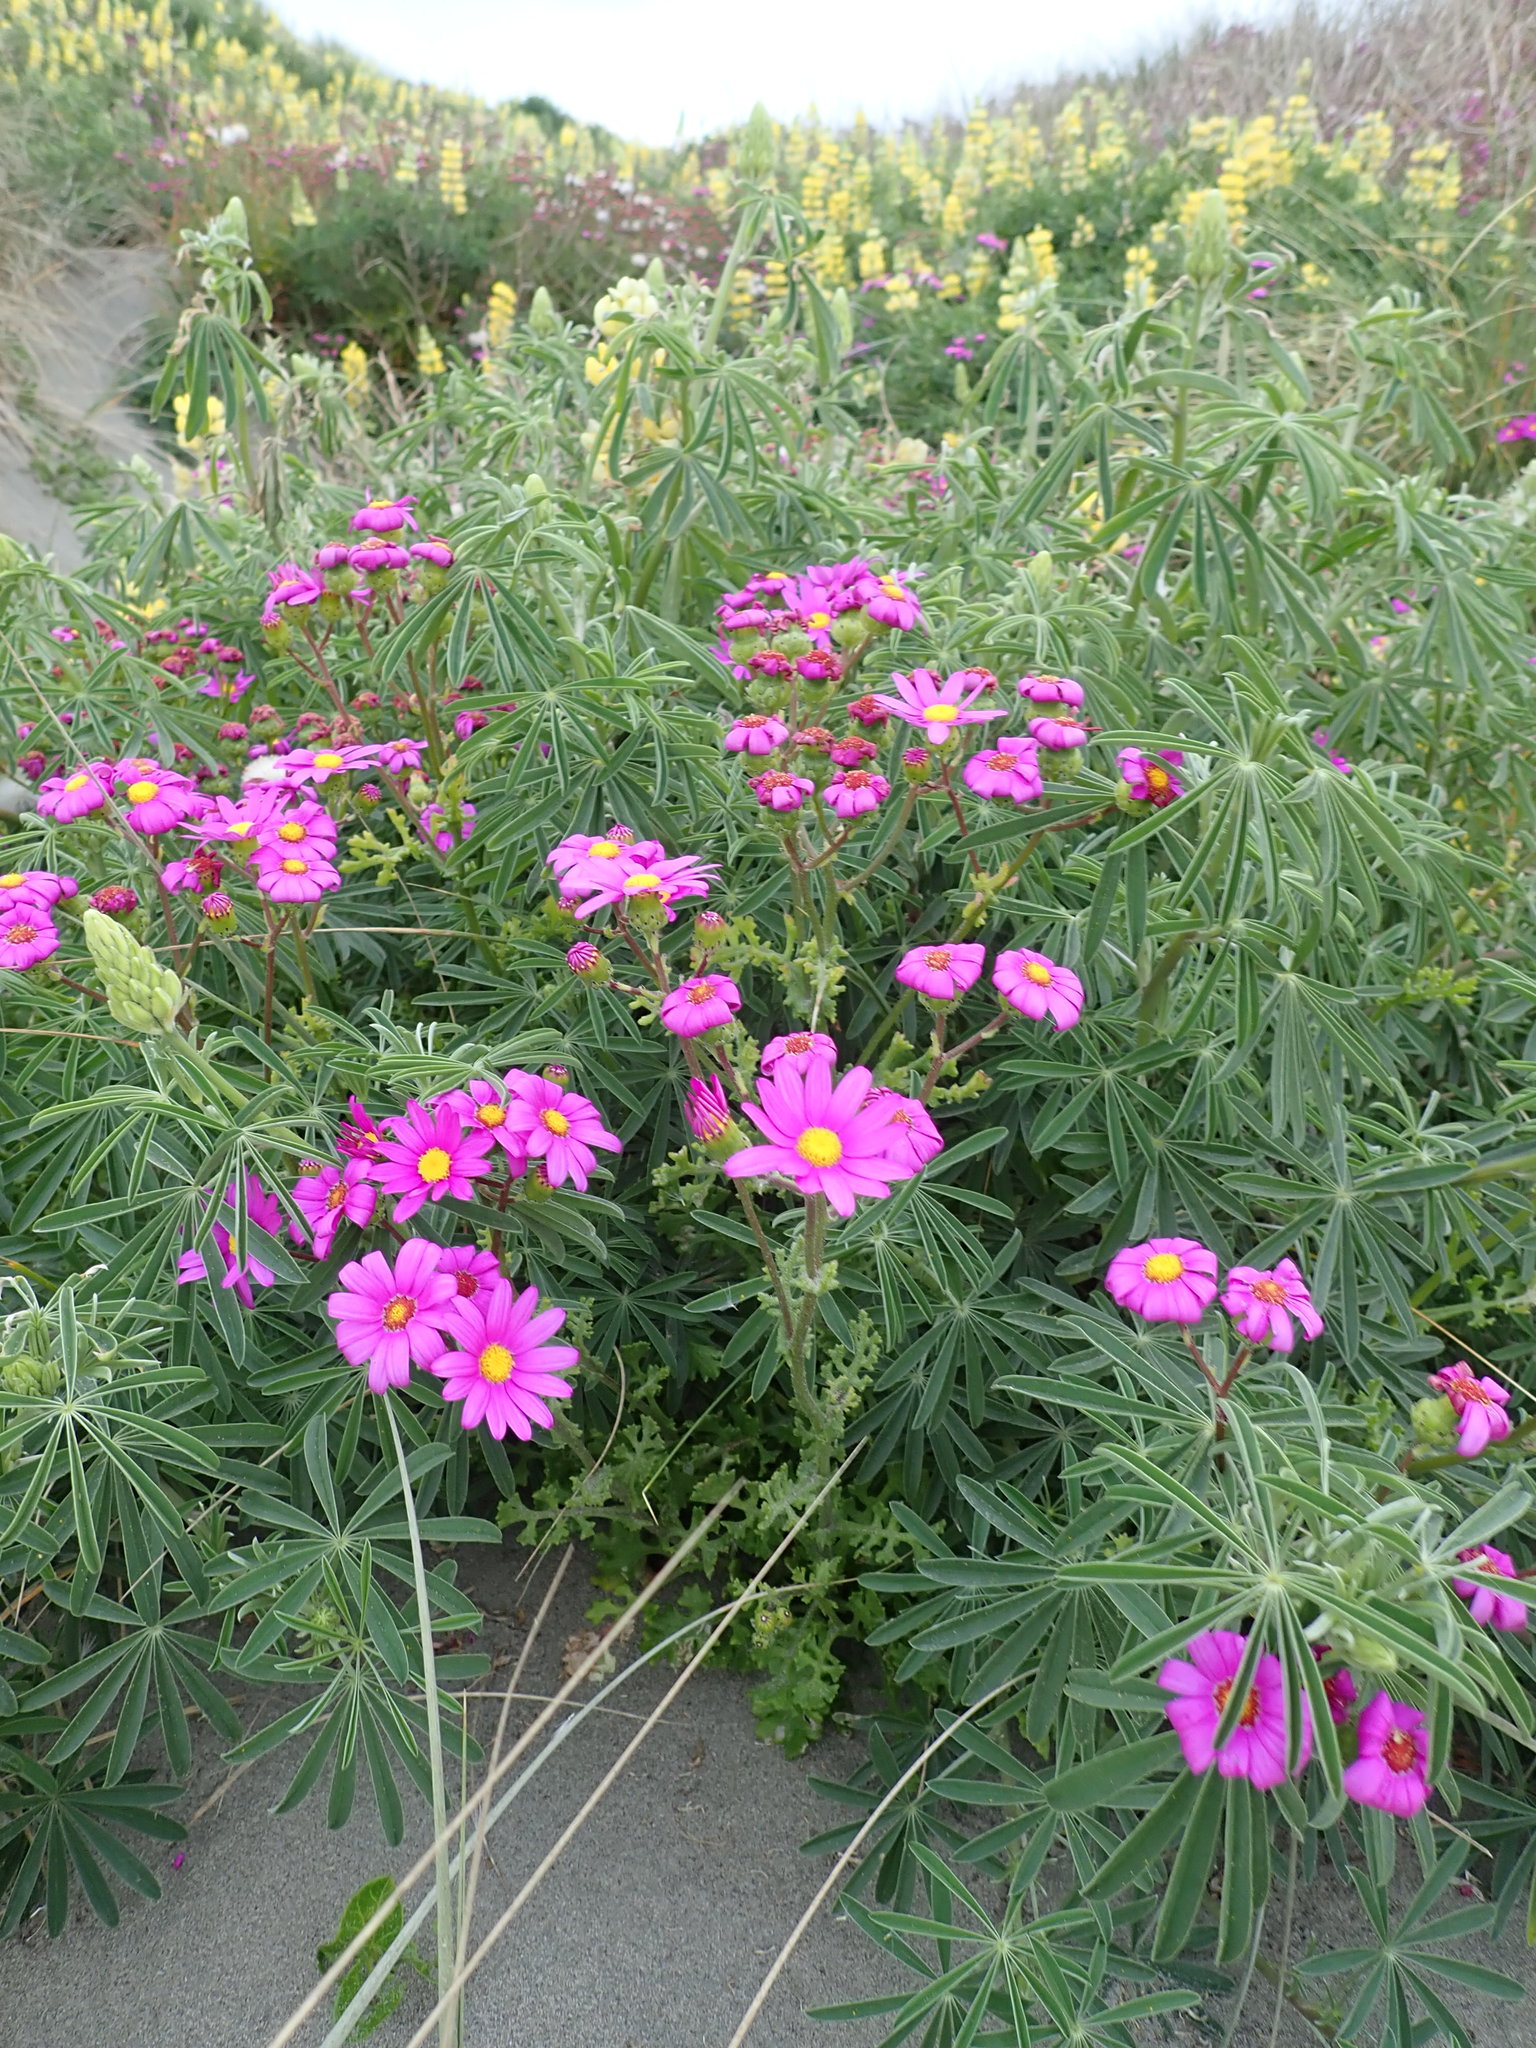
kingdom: Plantae
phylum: Tracheophyta
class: Magnoliopsida
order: Asterales
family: Asteraceae
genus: Senecio
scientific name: Senecio elegans
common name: Purple groundsel
